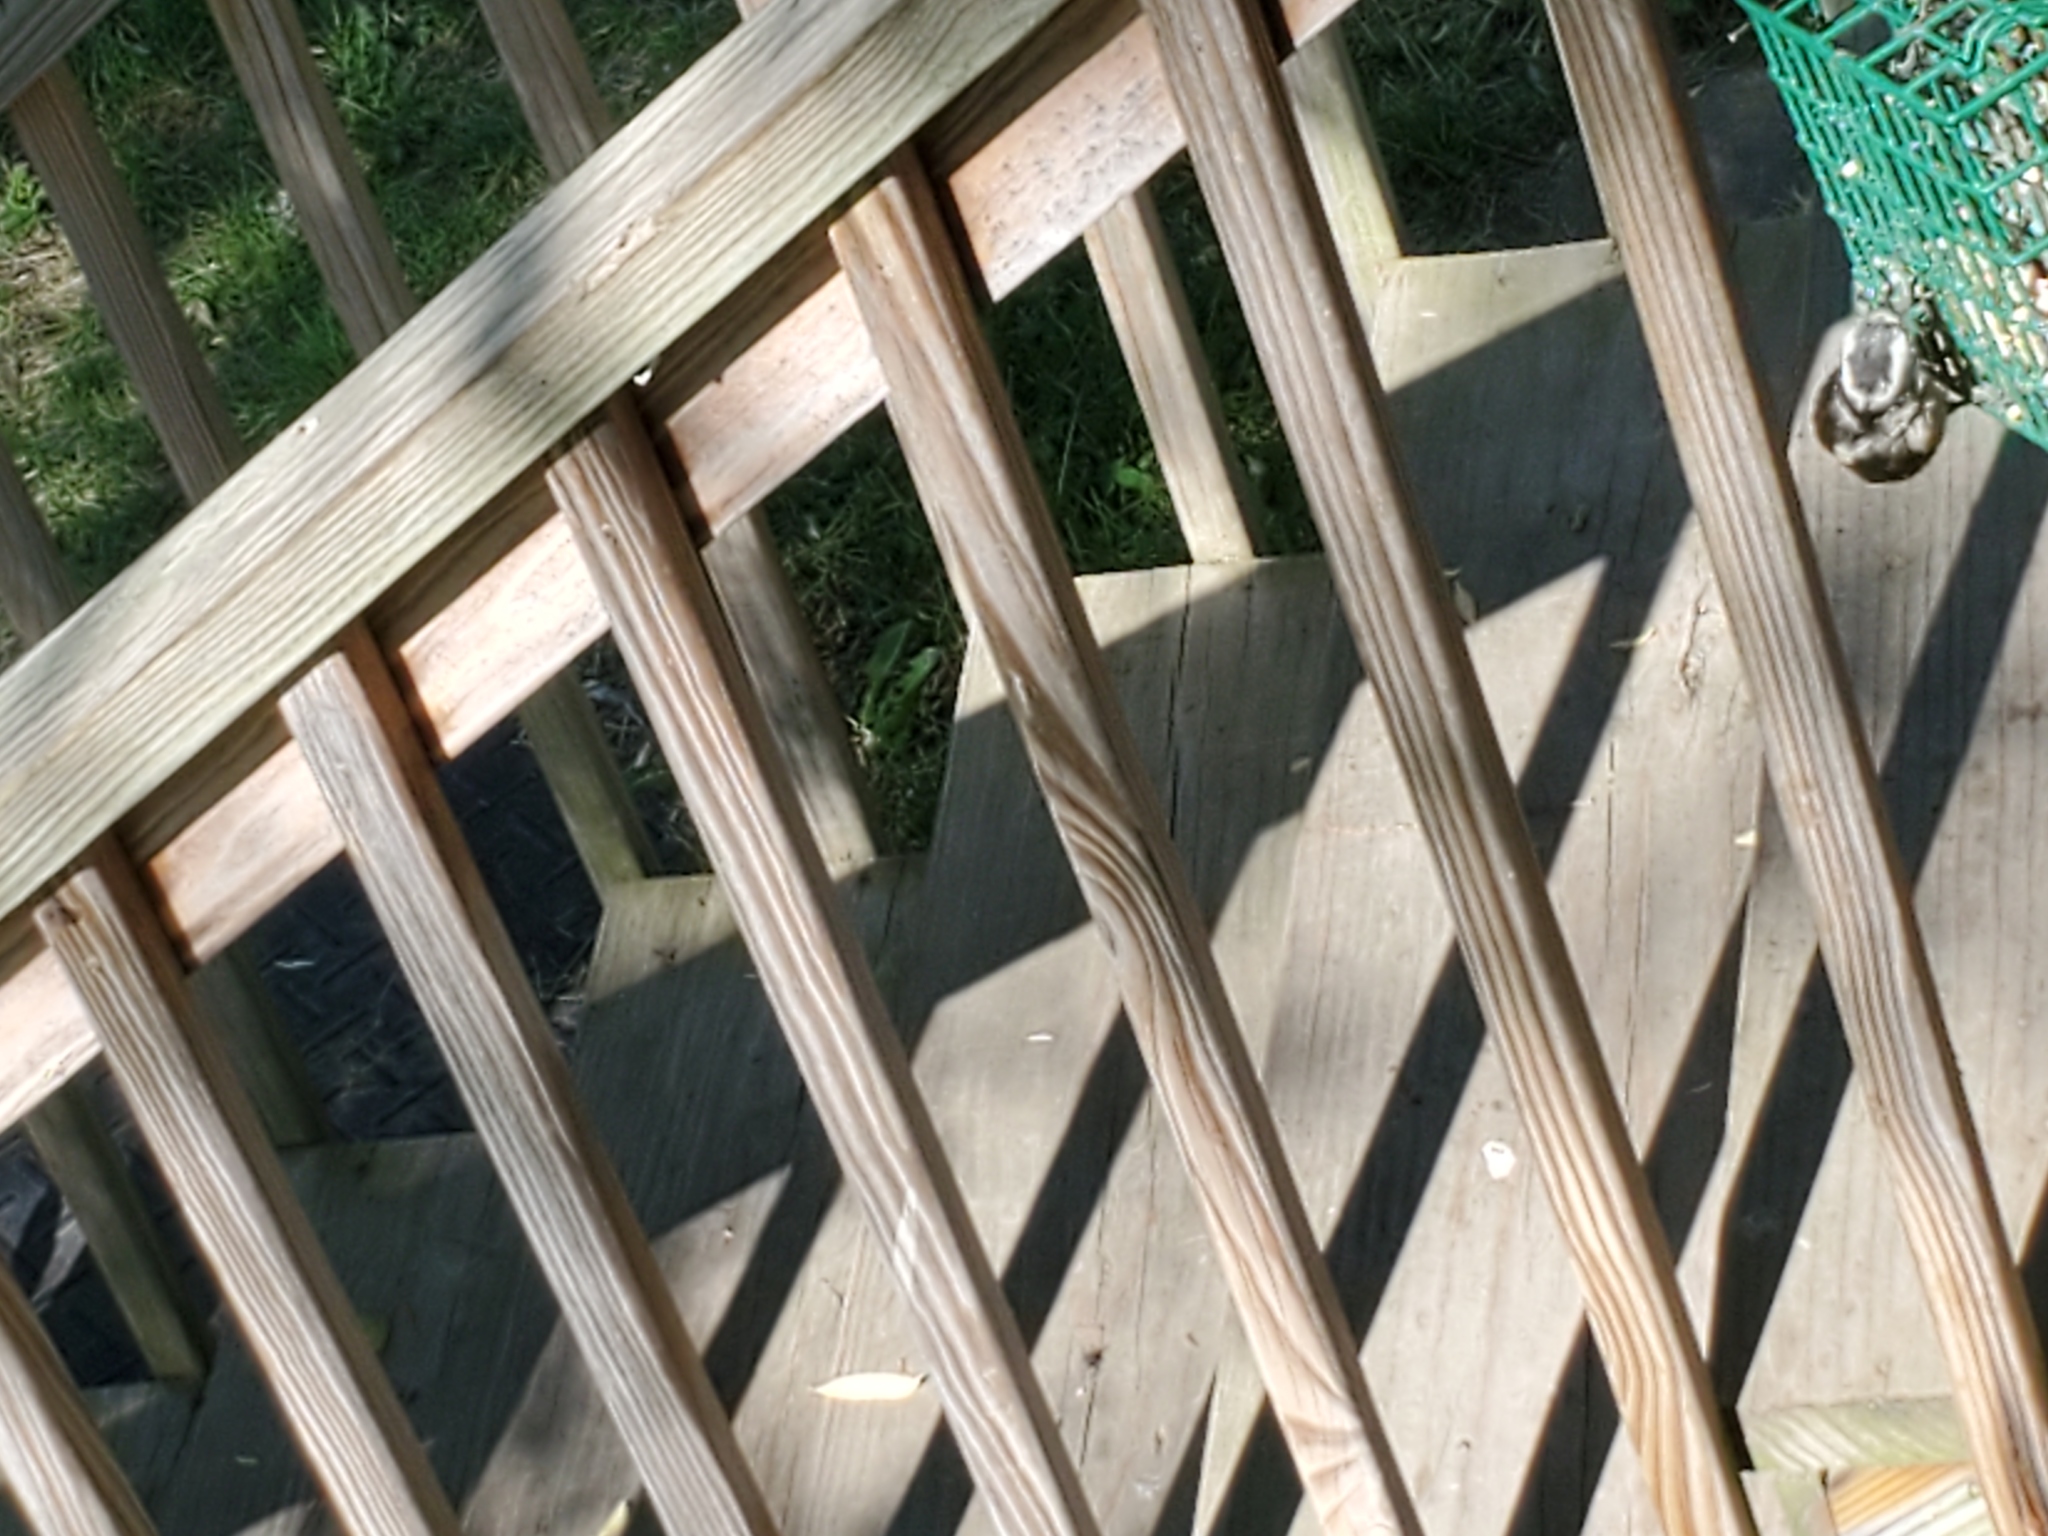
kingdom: Animalia
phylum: Chordata
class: Aves
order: Piciformes
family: Picidae
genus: Dryobates
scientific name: Dryobates pubescens
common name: Downy woodpecker
